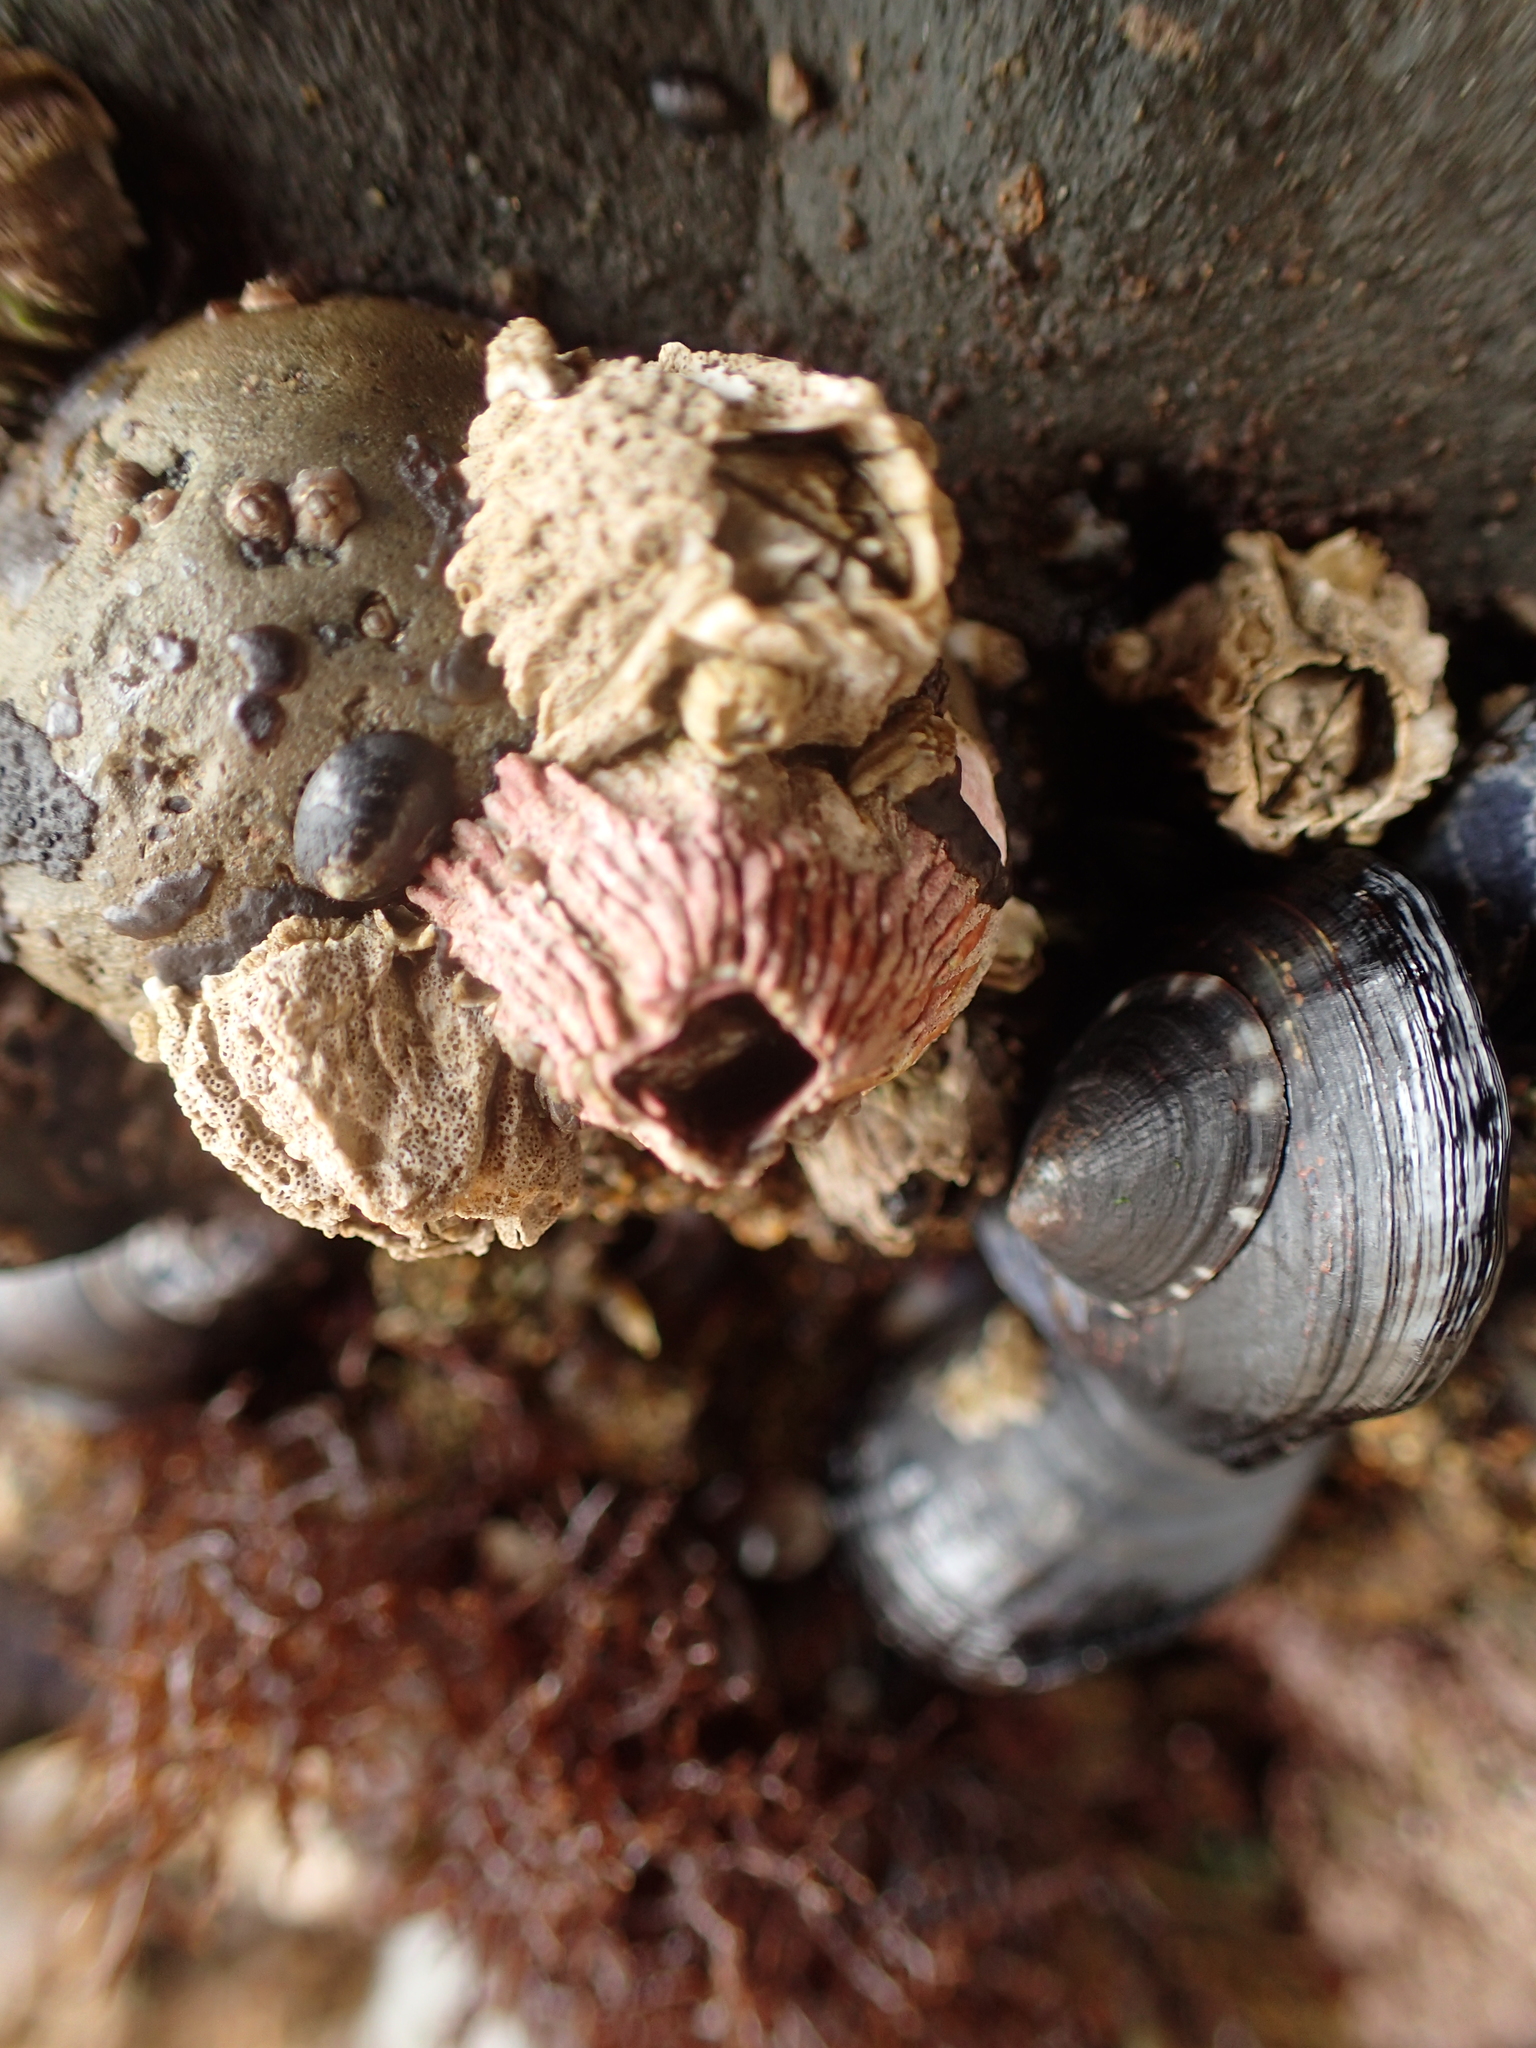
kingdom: Animalia
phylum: Arthropoda
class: Maxillopoda
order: Sessilia
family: Tetraclitidae
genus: Tetraclita
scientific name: Tetraclita rubescens
